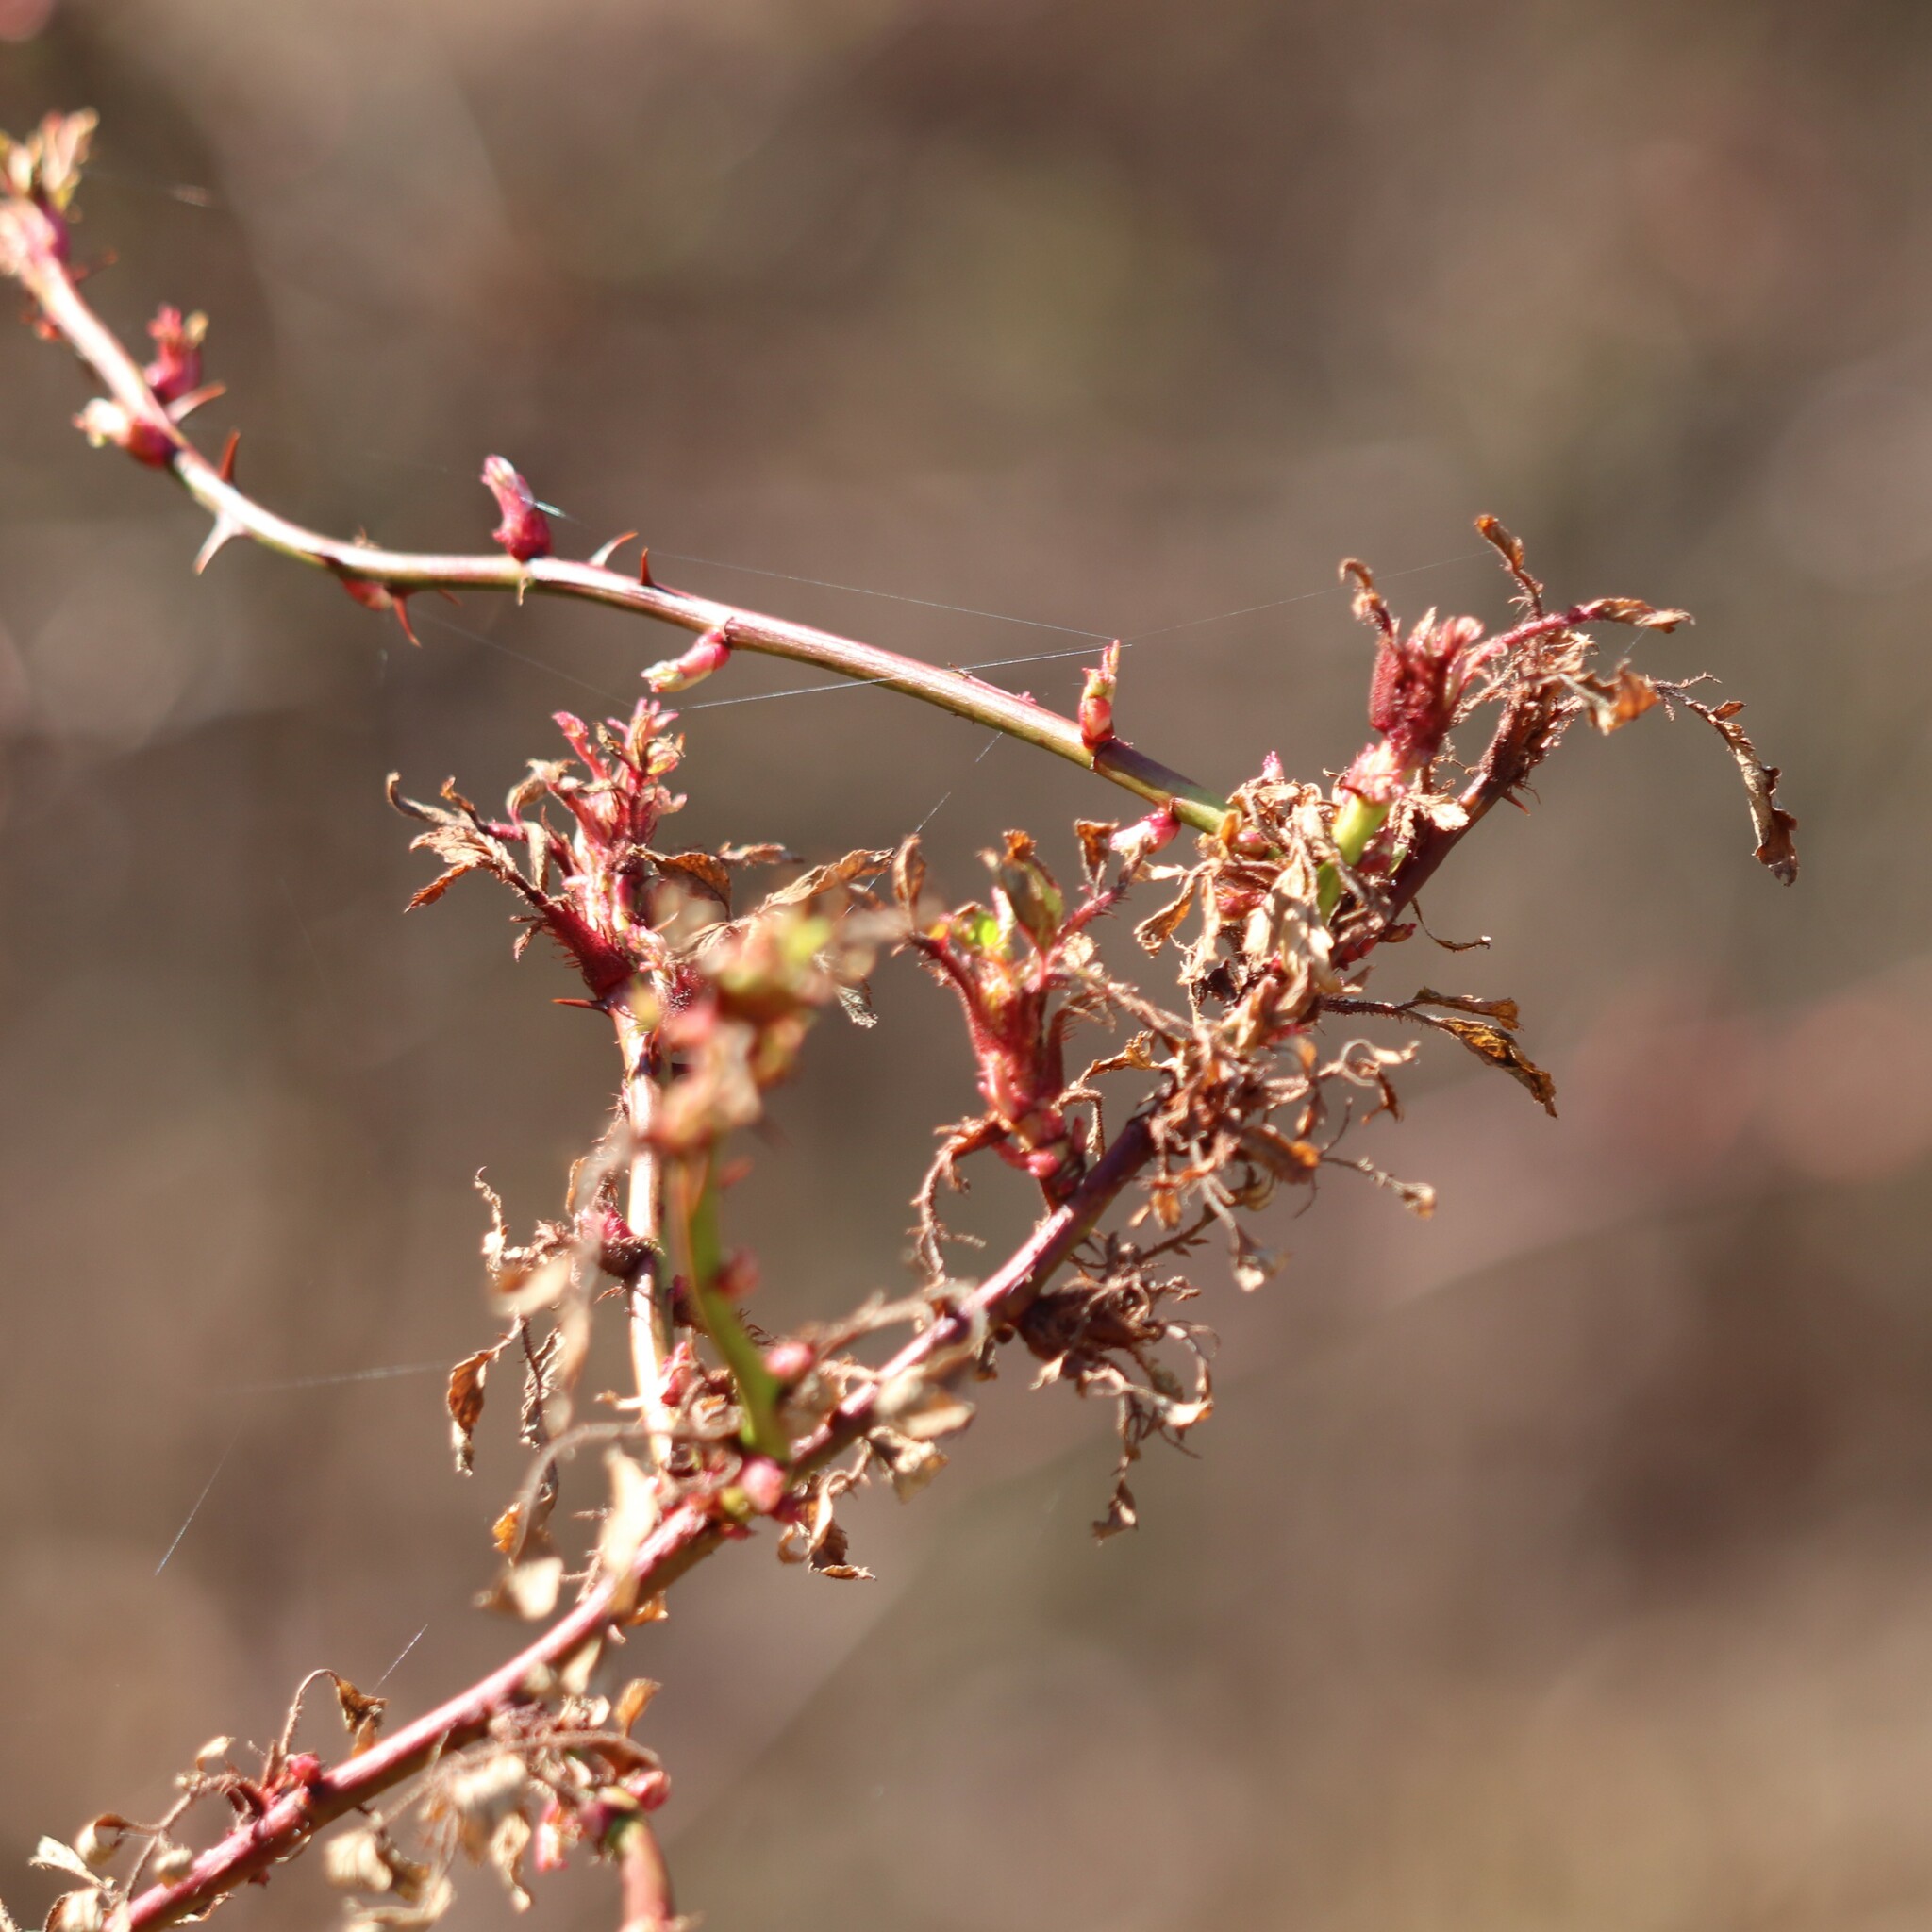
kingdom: Viruses
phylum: Negarnaviricota
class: Ellioviricetes
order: Bunyavirales
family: Fimoviridae
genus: Emaravirus
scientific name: Emaravirus rosae
